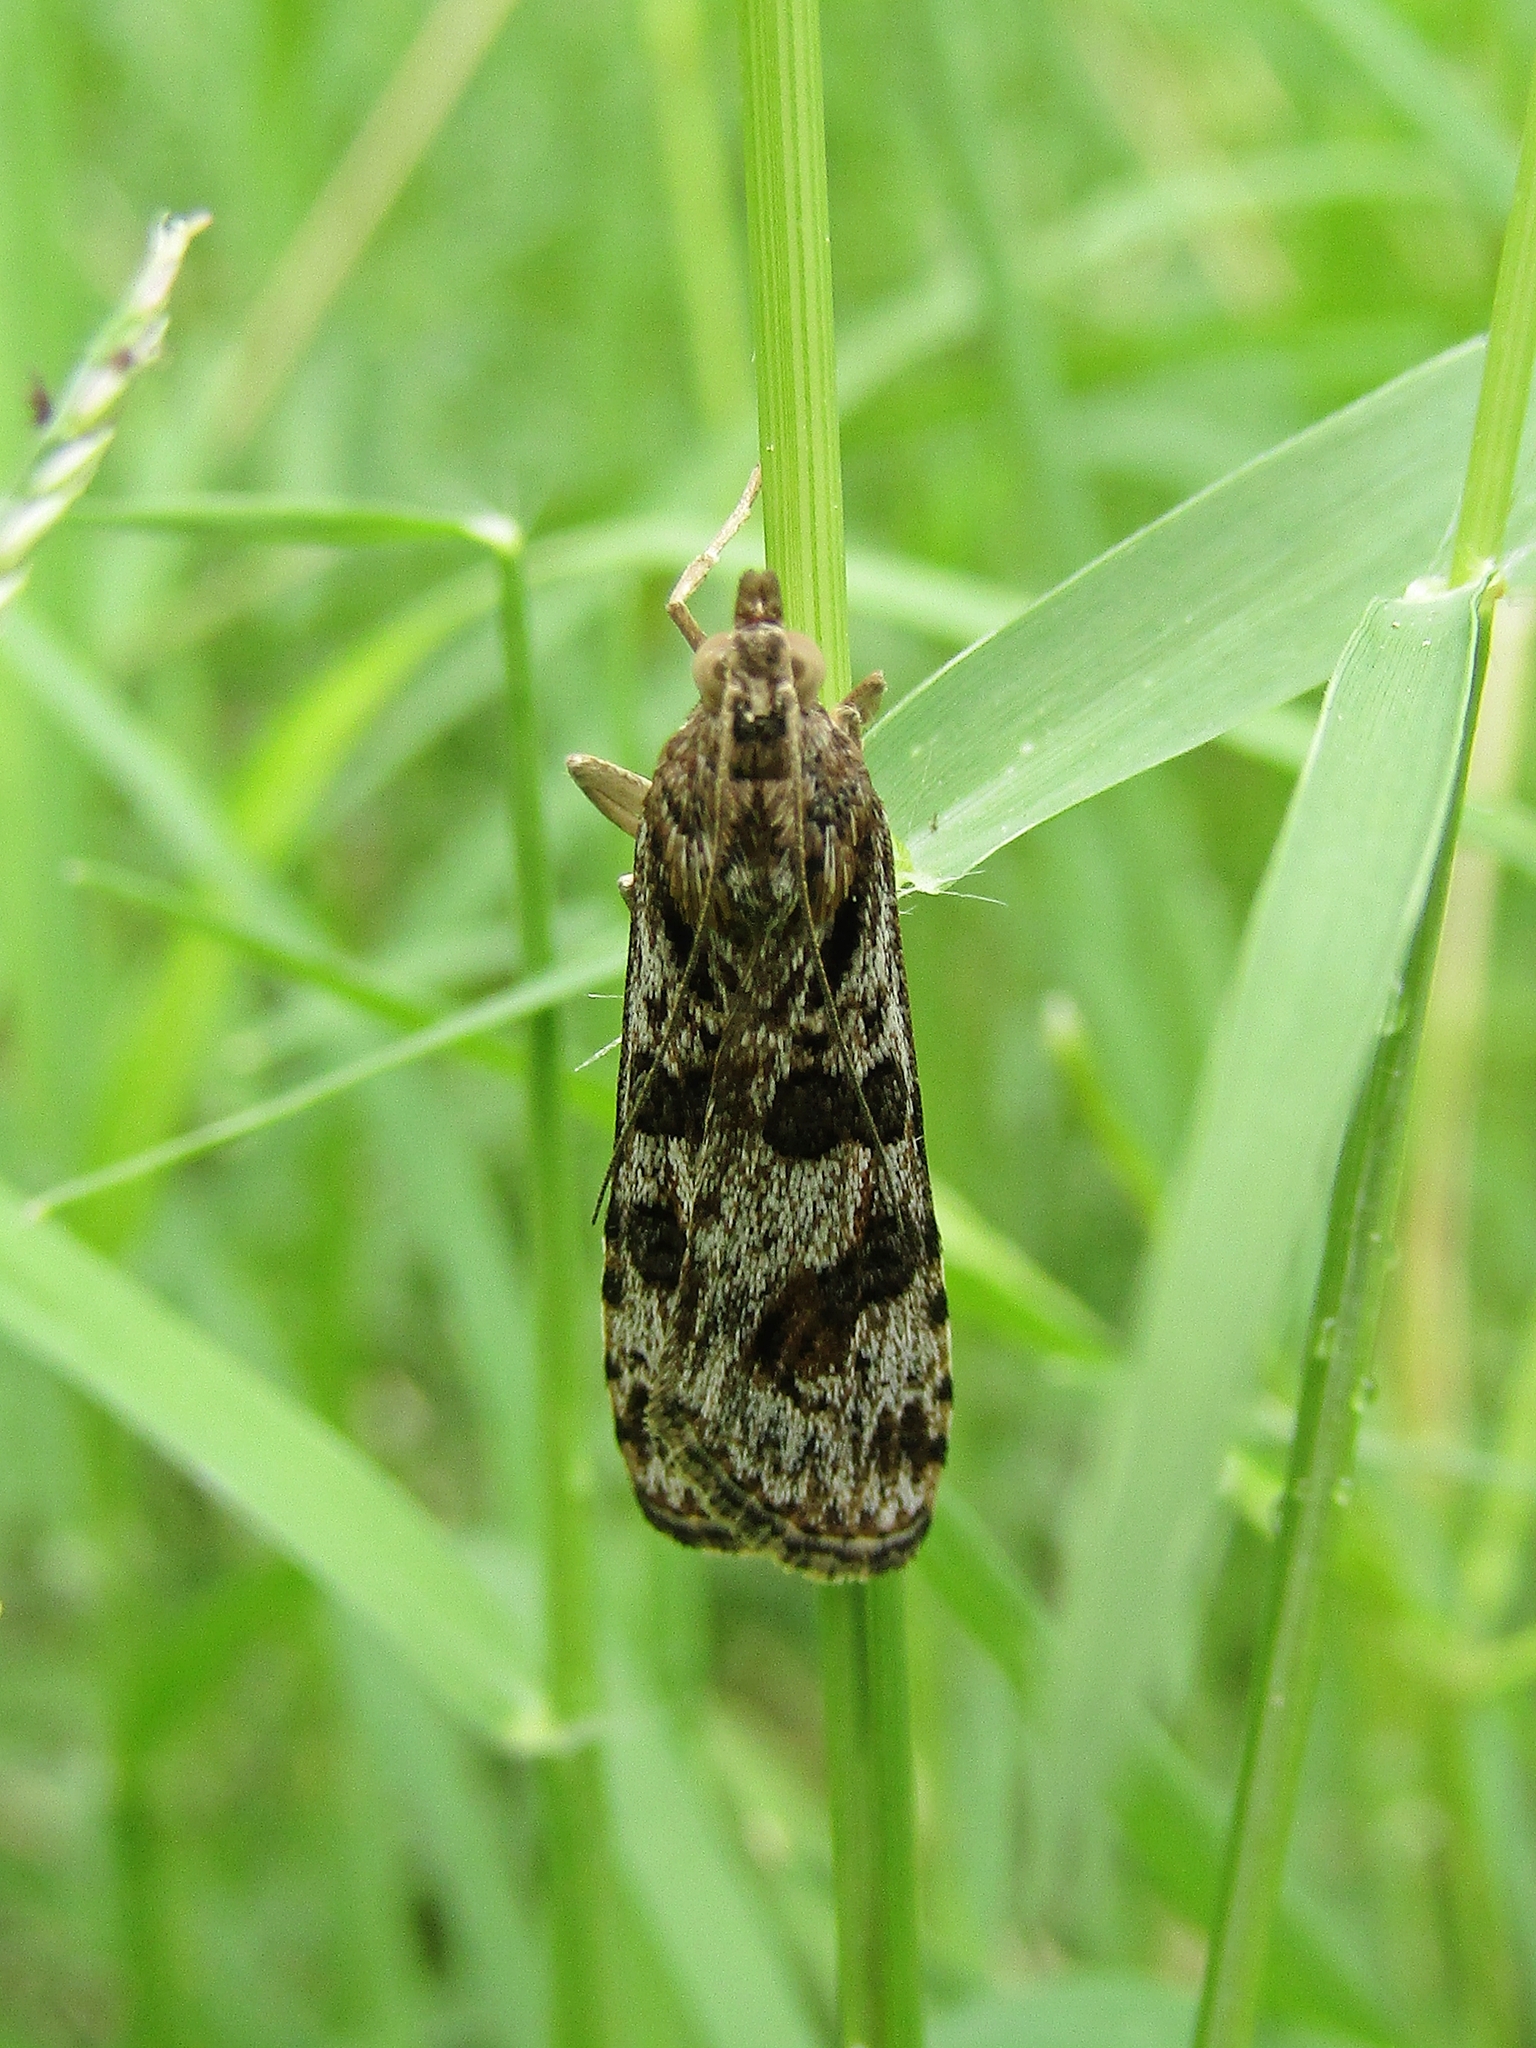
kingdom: Animalia
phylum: Arthropoda
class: Insecta
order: Lepidoptera
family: Crambidae
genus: Nomophila
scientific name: Nomophila
